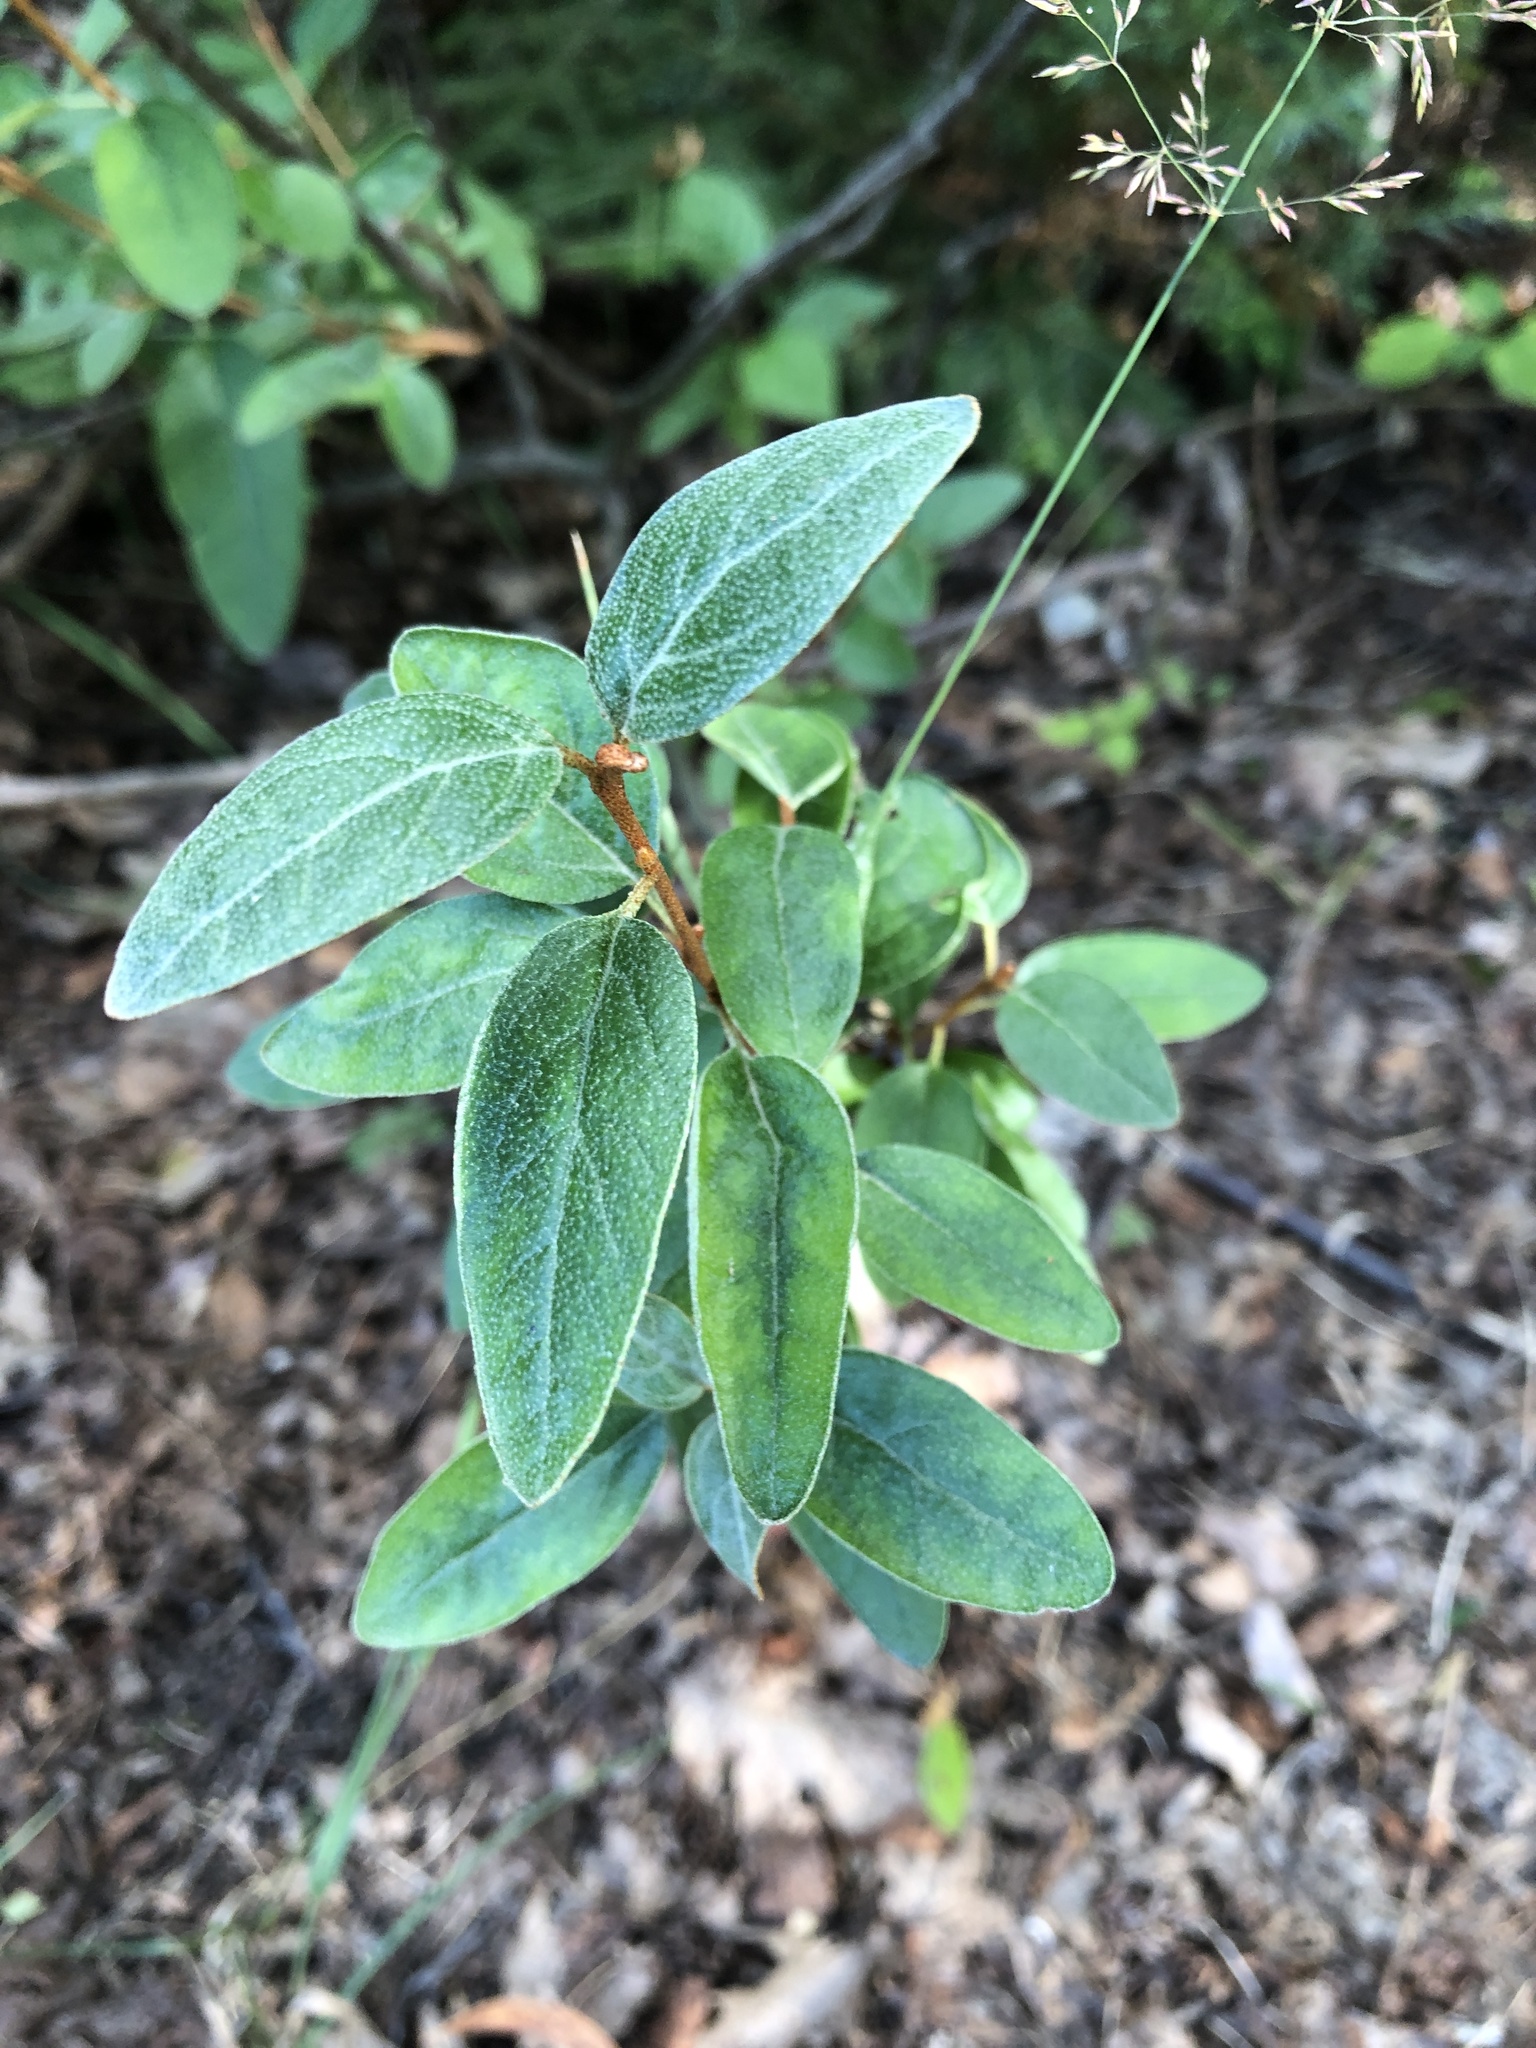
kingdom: Plantae
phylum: Tracheophyta
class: Magnoliopsida
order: Rosales
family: Elaeagnaceae
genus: Shepherdia
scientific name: Shepherdia canadensis
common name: Soapberry
